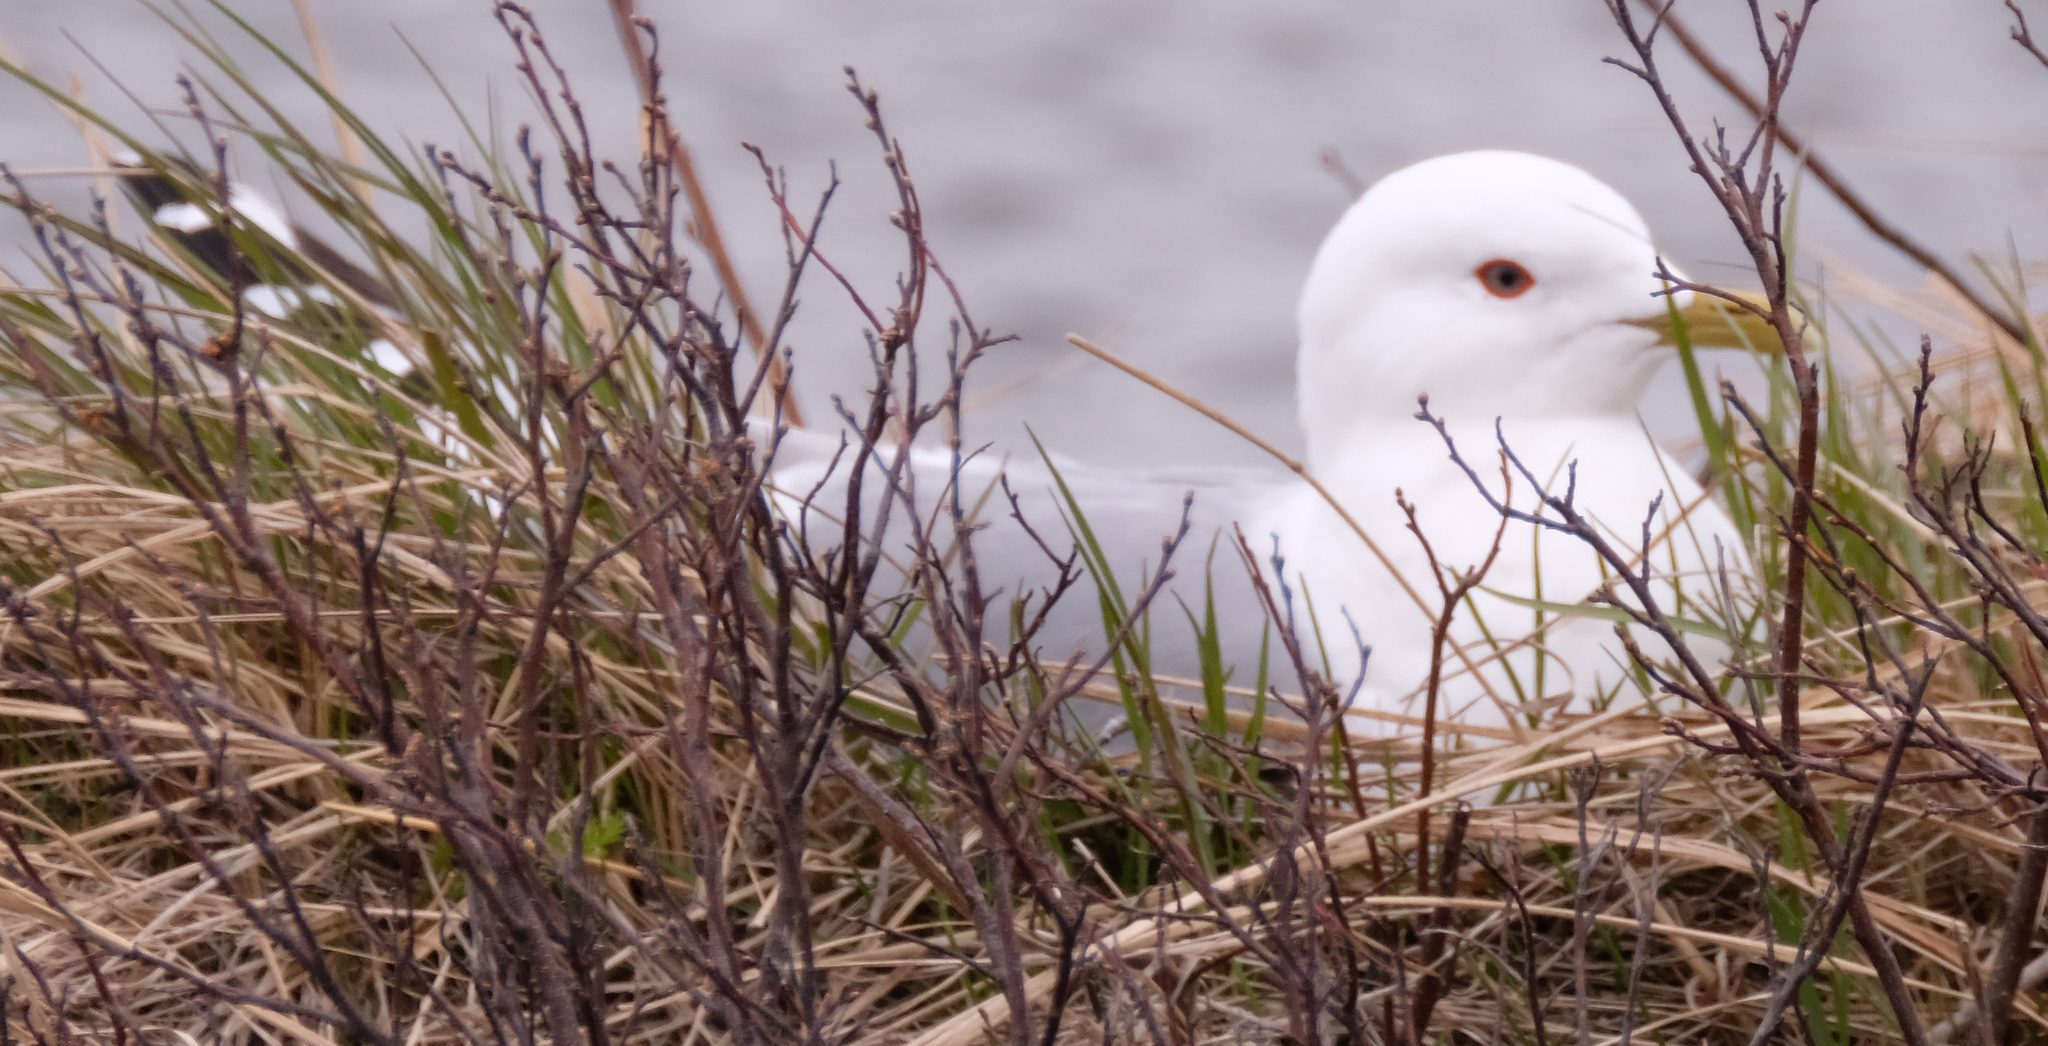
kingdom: Animalia
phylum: Chordata
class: Aves
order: Charadriiformes
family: Laridae
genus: Larus
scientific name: Larus brachyrhynchus
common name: Short-billed gull
